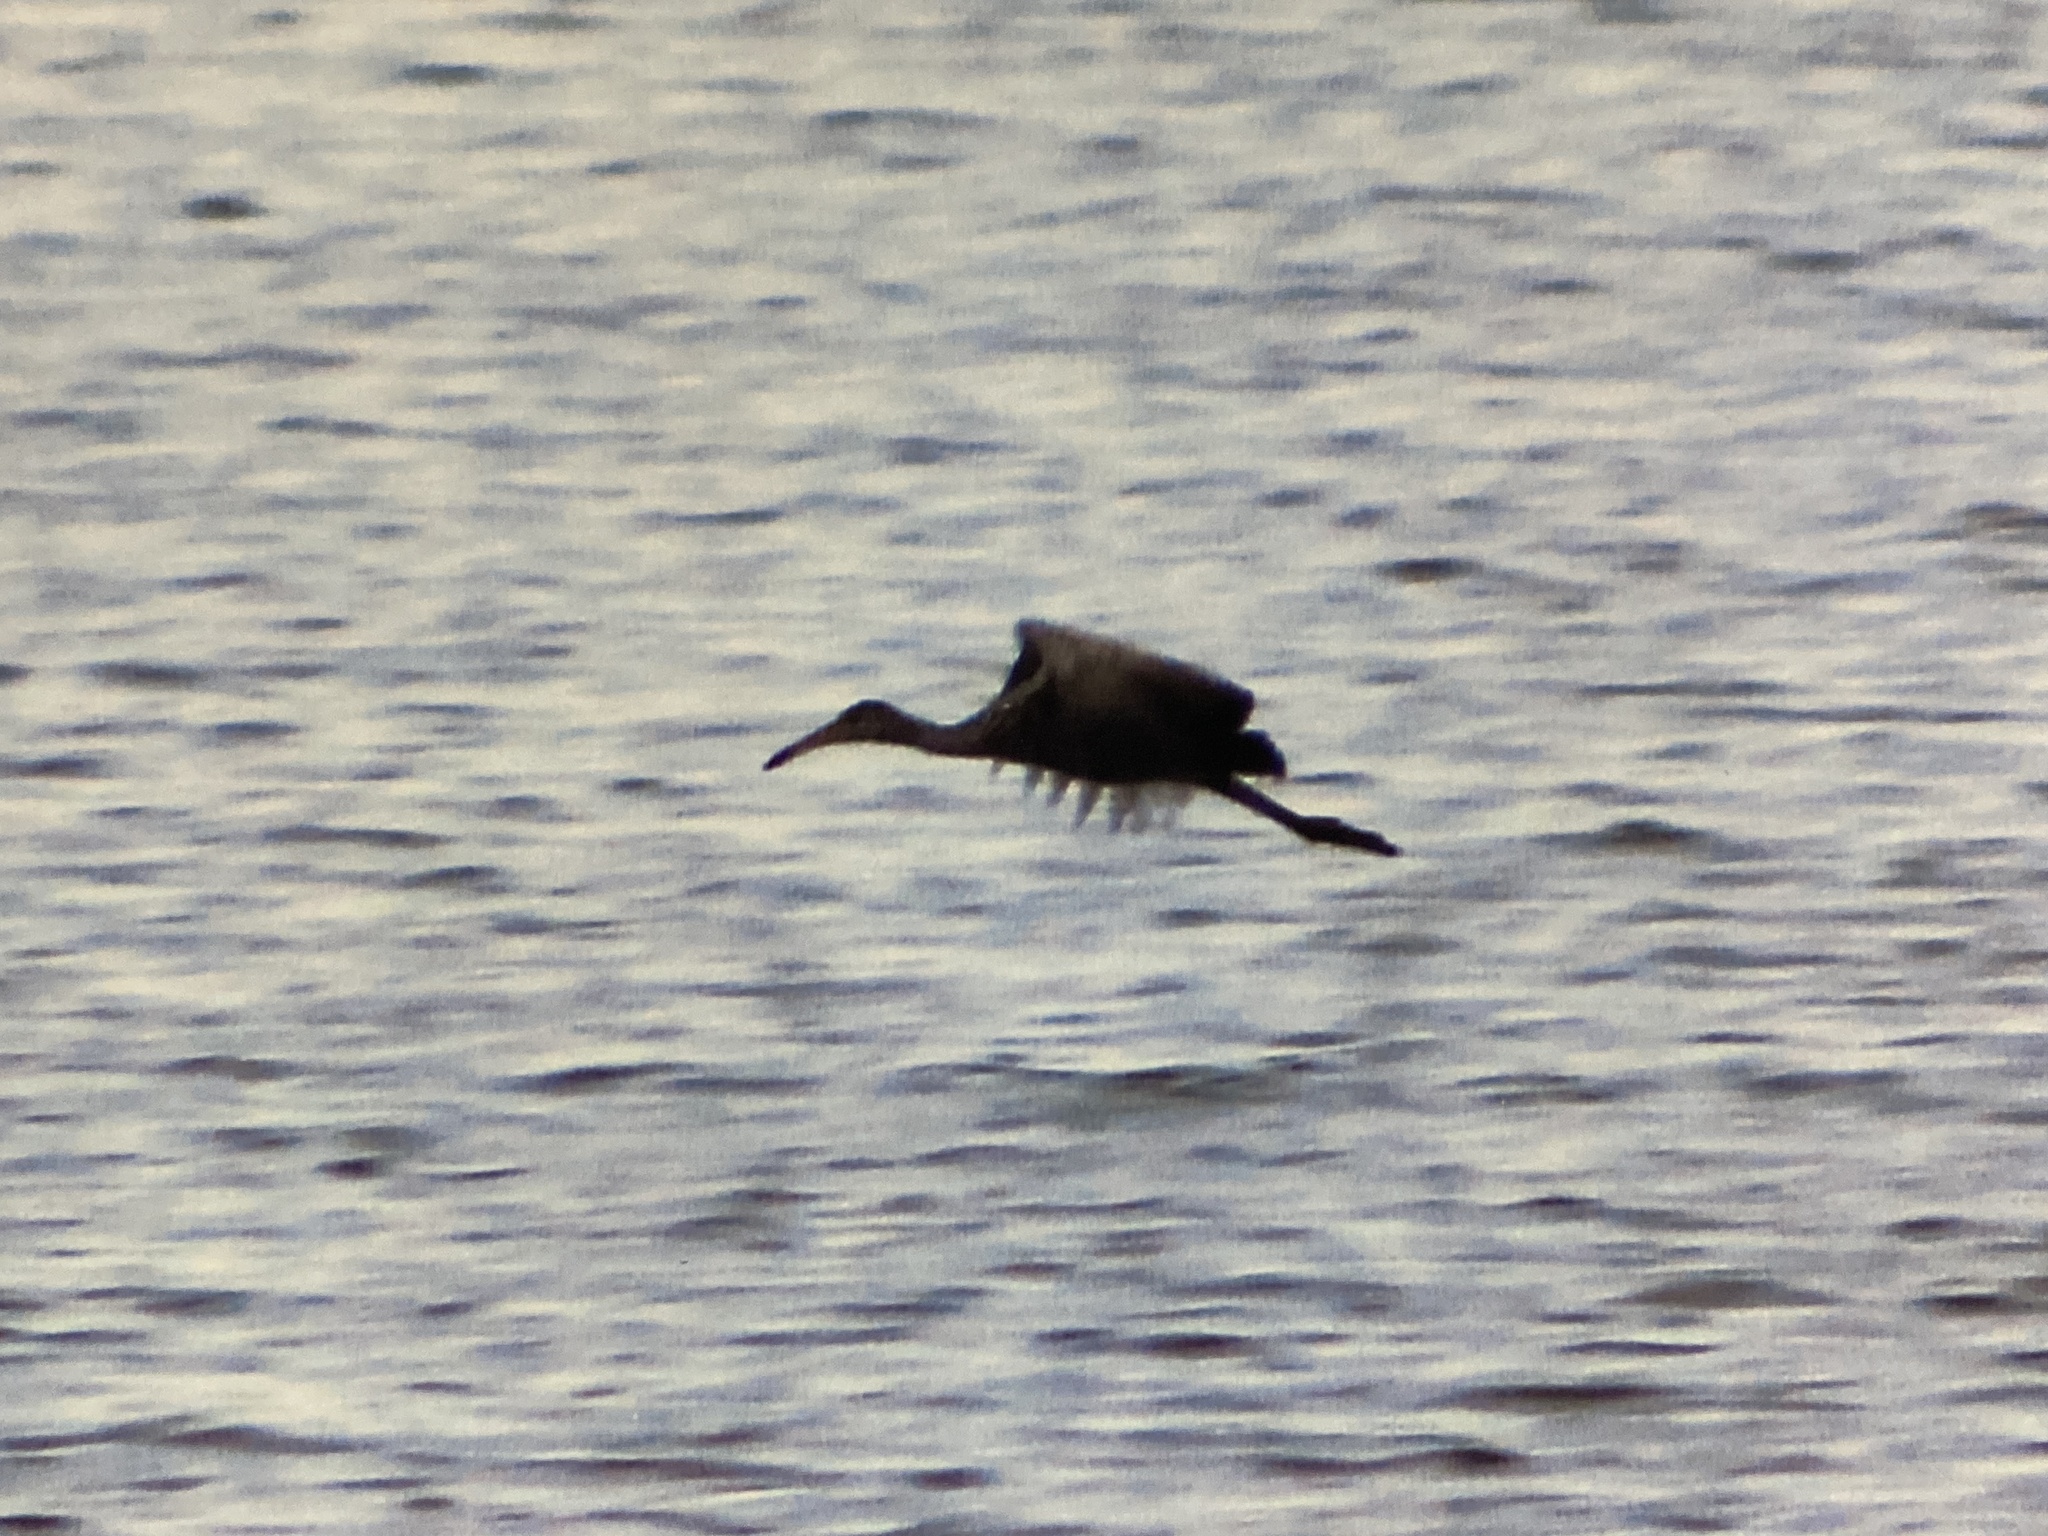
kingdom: Animalia
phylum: Chordata
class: Aves
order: Gruiformes
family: Aramidae
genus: Aramus
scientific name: Aramus guarauna
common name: Limpkin
